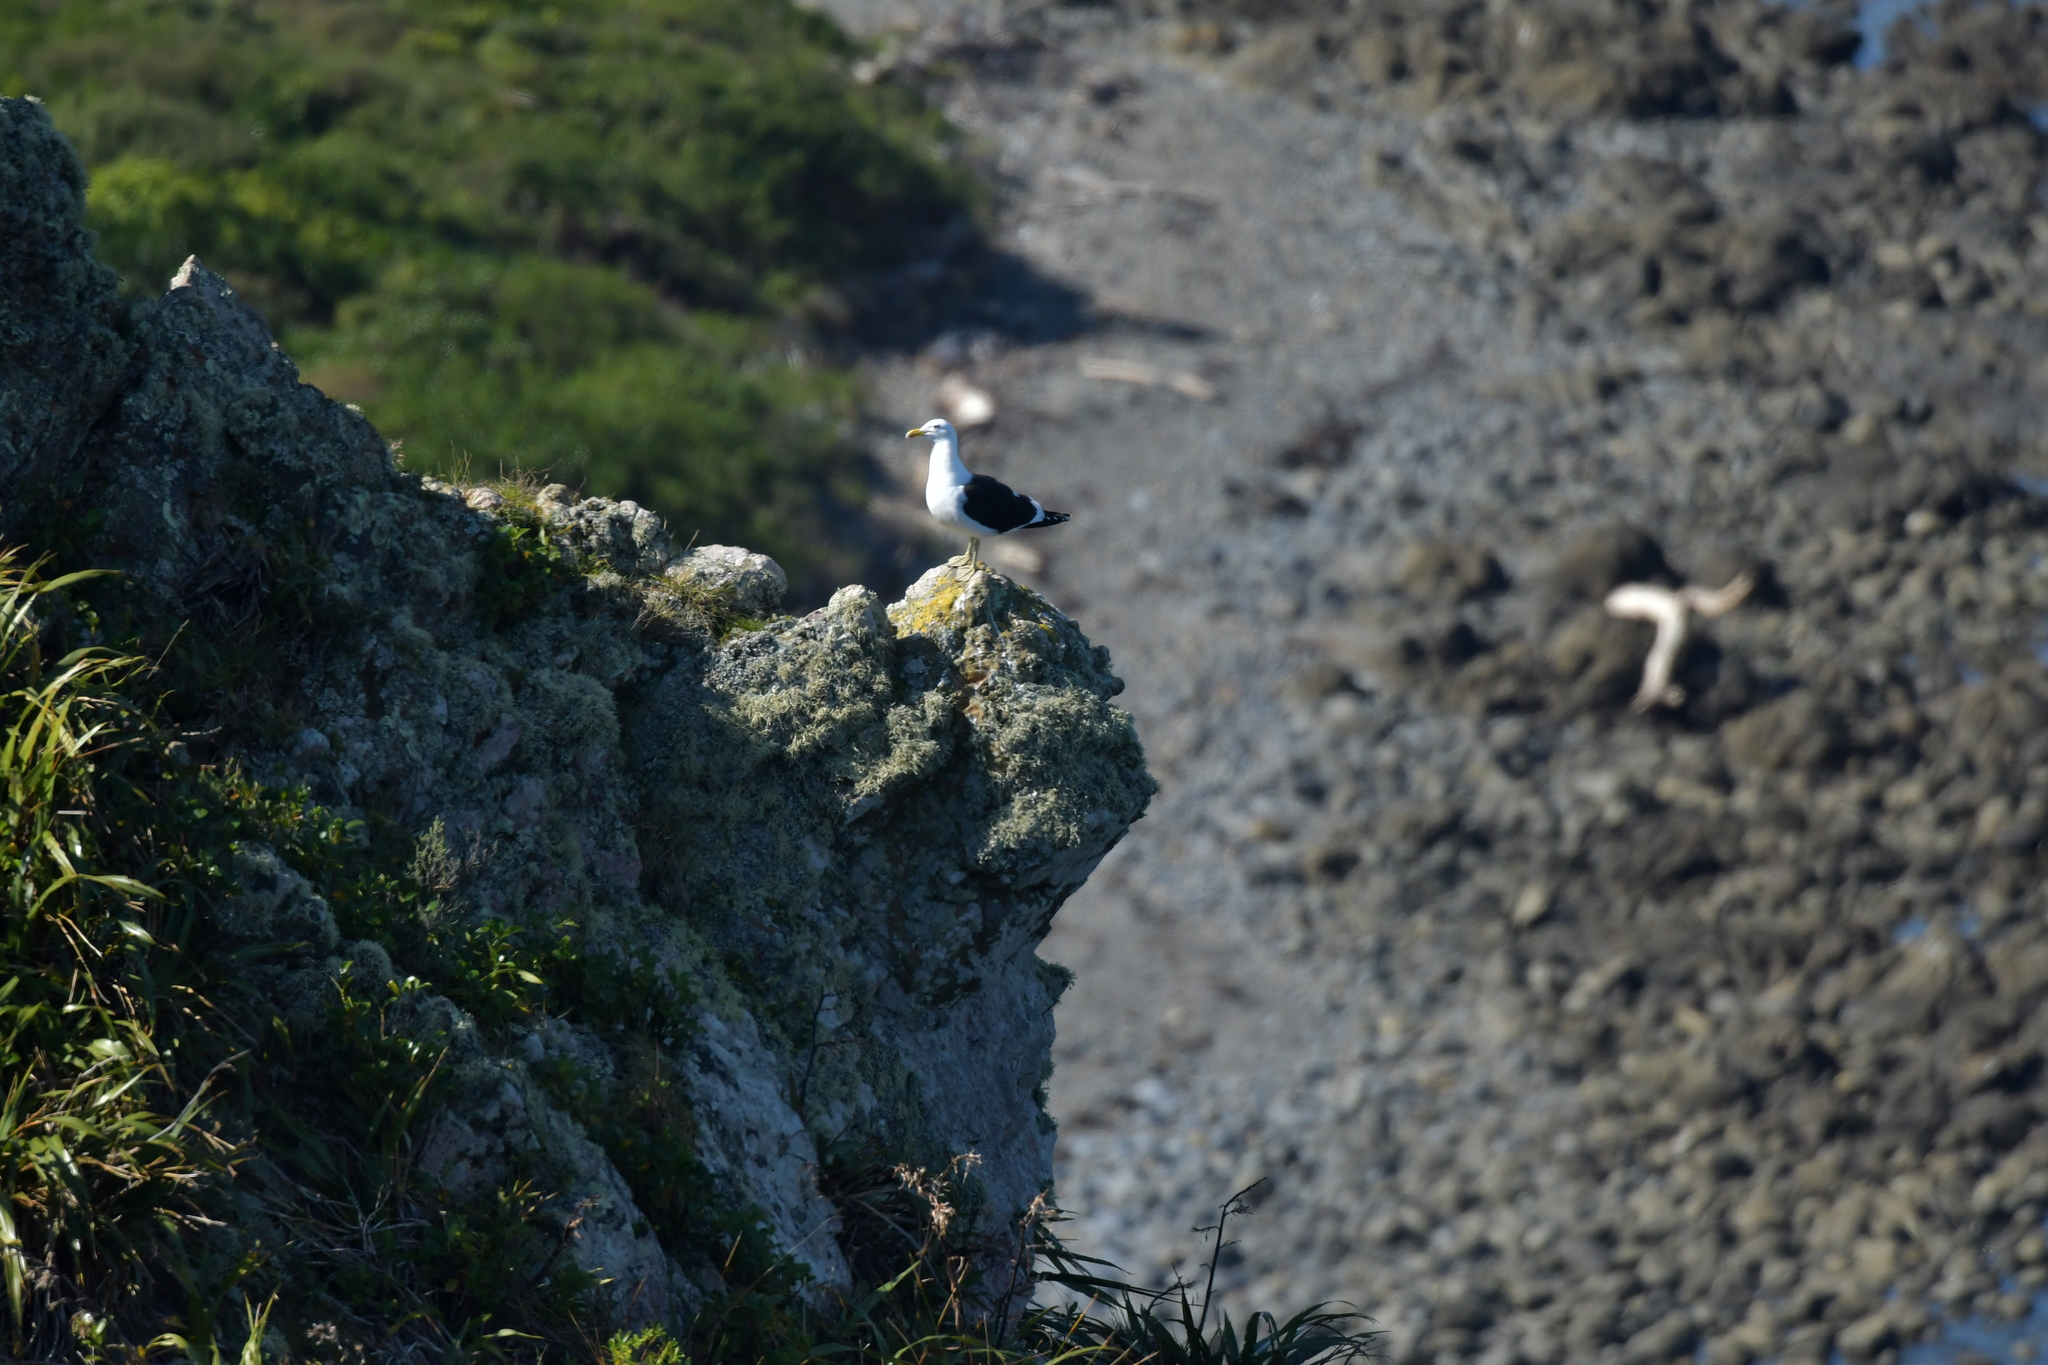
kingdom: Animalia
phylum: Chordata
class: Aves
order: Charadriiformes
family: Laridae
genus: Larus
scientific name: Larus dominicanus
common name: Kelp gull
